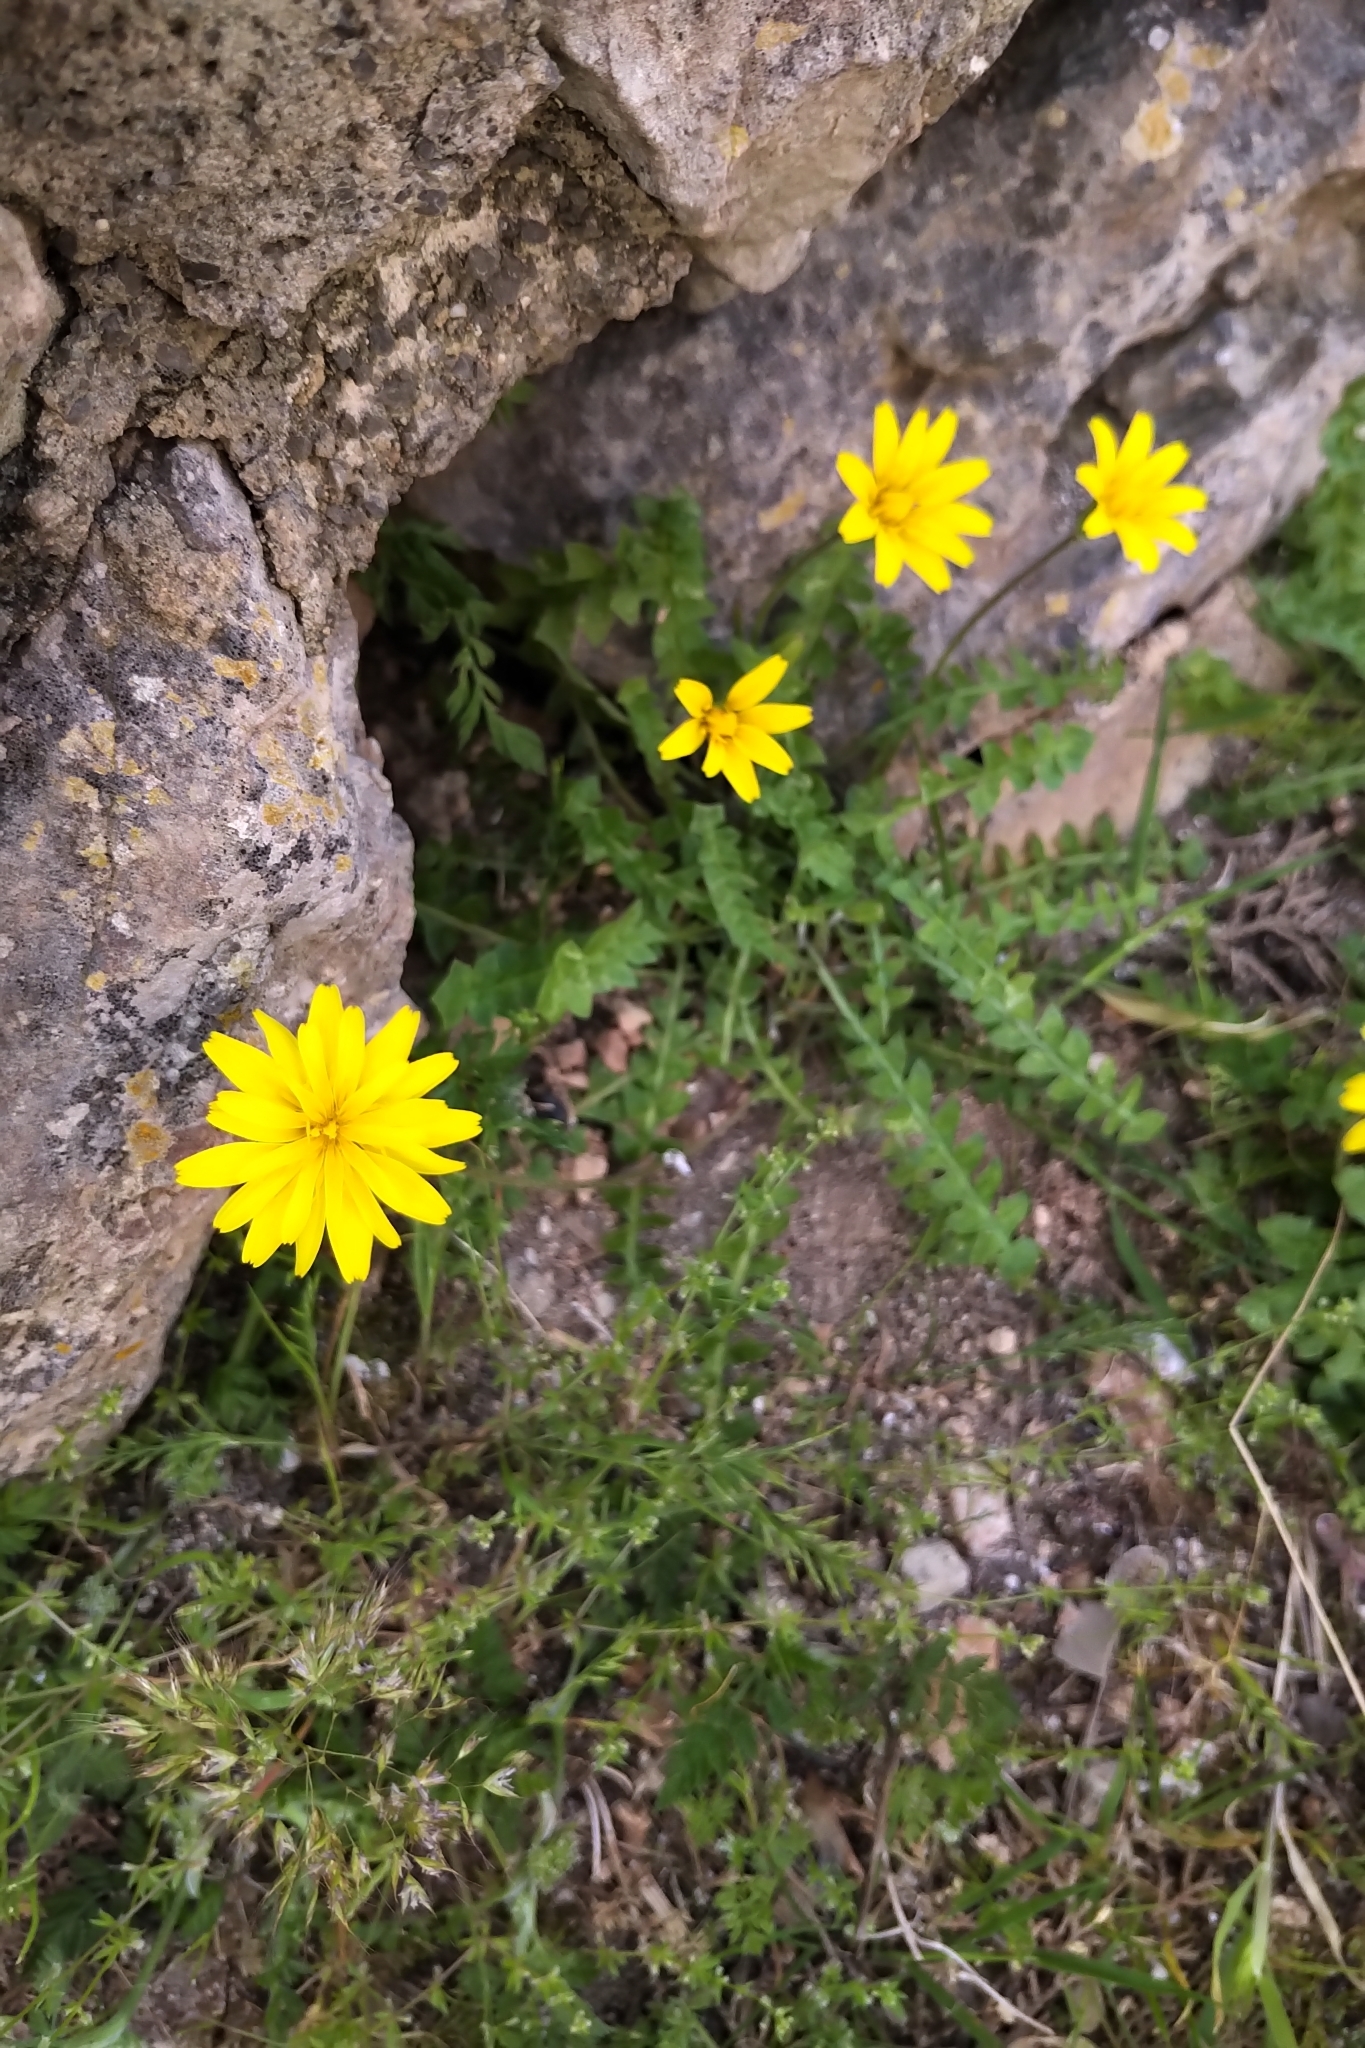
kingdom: Plantae
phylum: Tracheophyta
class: Magnoliopsida
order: Asterales
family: Asteraceae
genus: Hyoseris
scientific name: Hyoseris radiata
